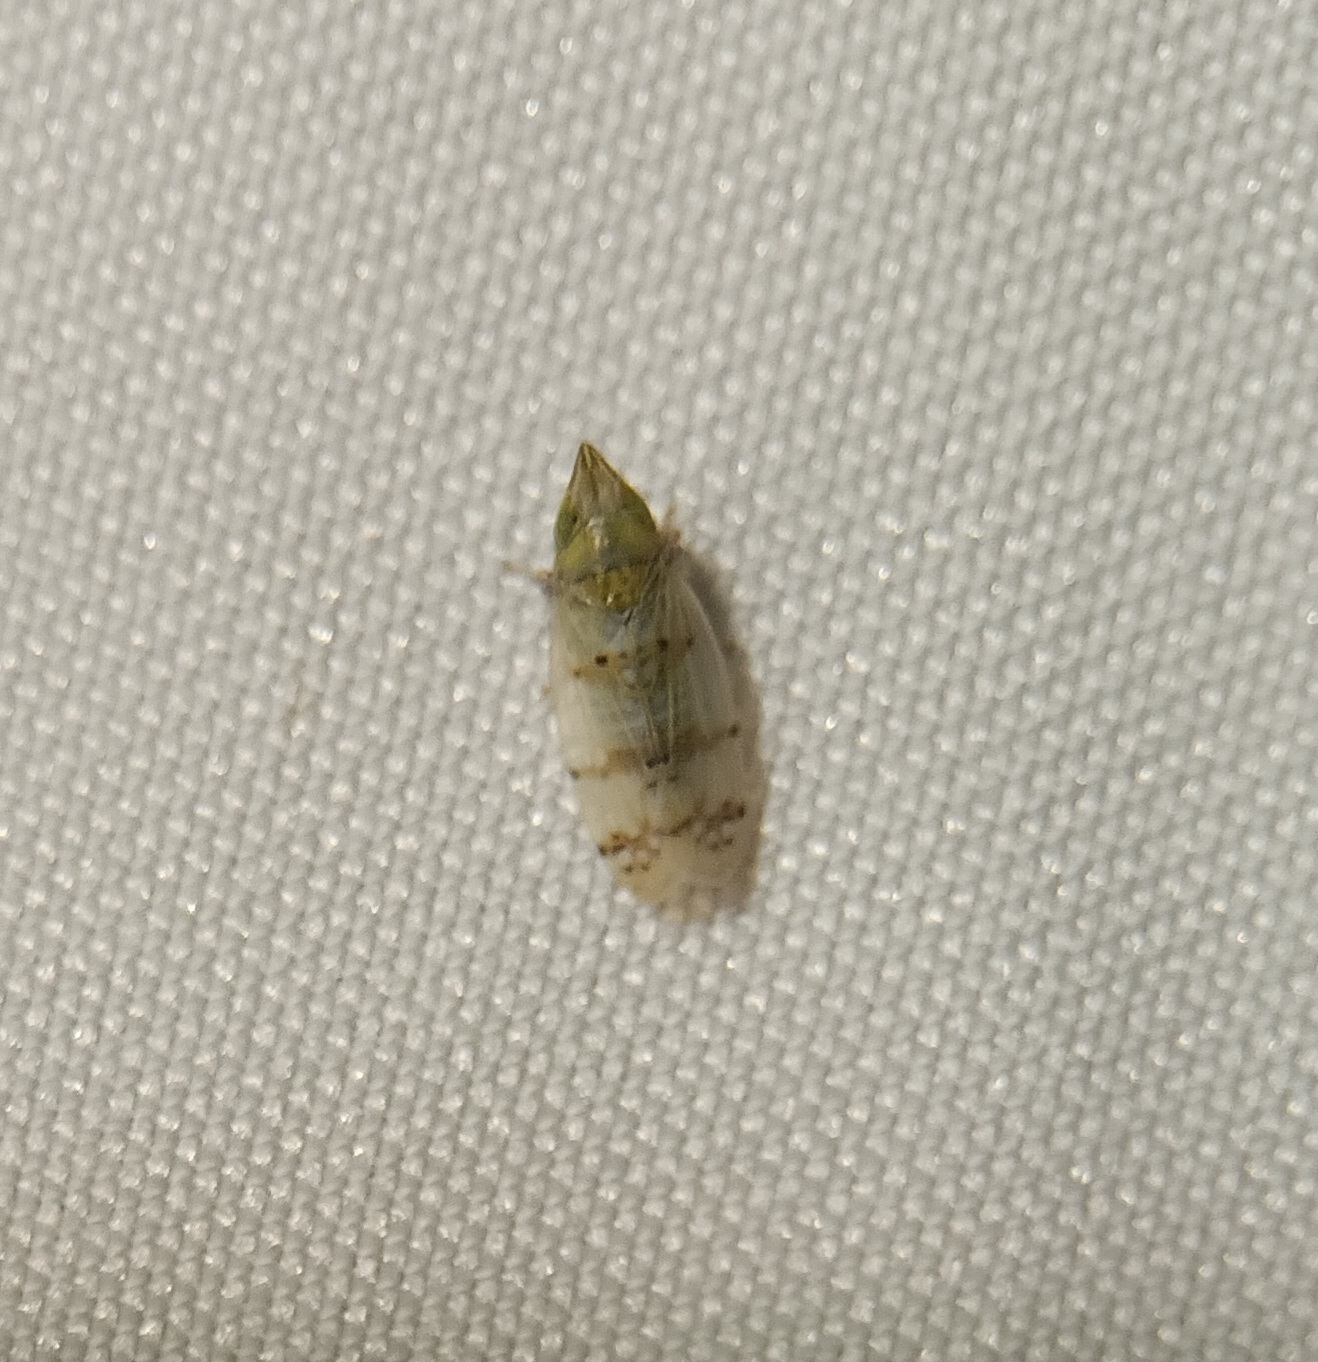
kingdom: Animalia
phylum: Arthropoda
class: Insecta
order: Hemiptera
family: Cicadellidae
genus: Japananus
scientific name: Japananus hyalinus
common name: The japanese maple leafhopper
